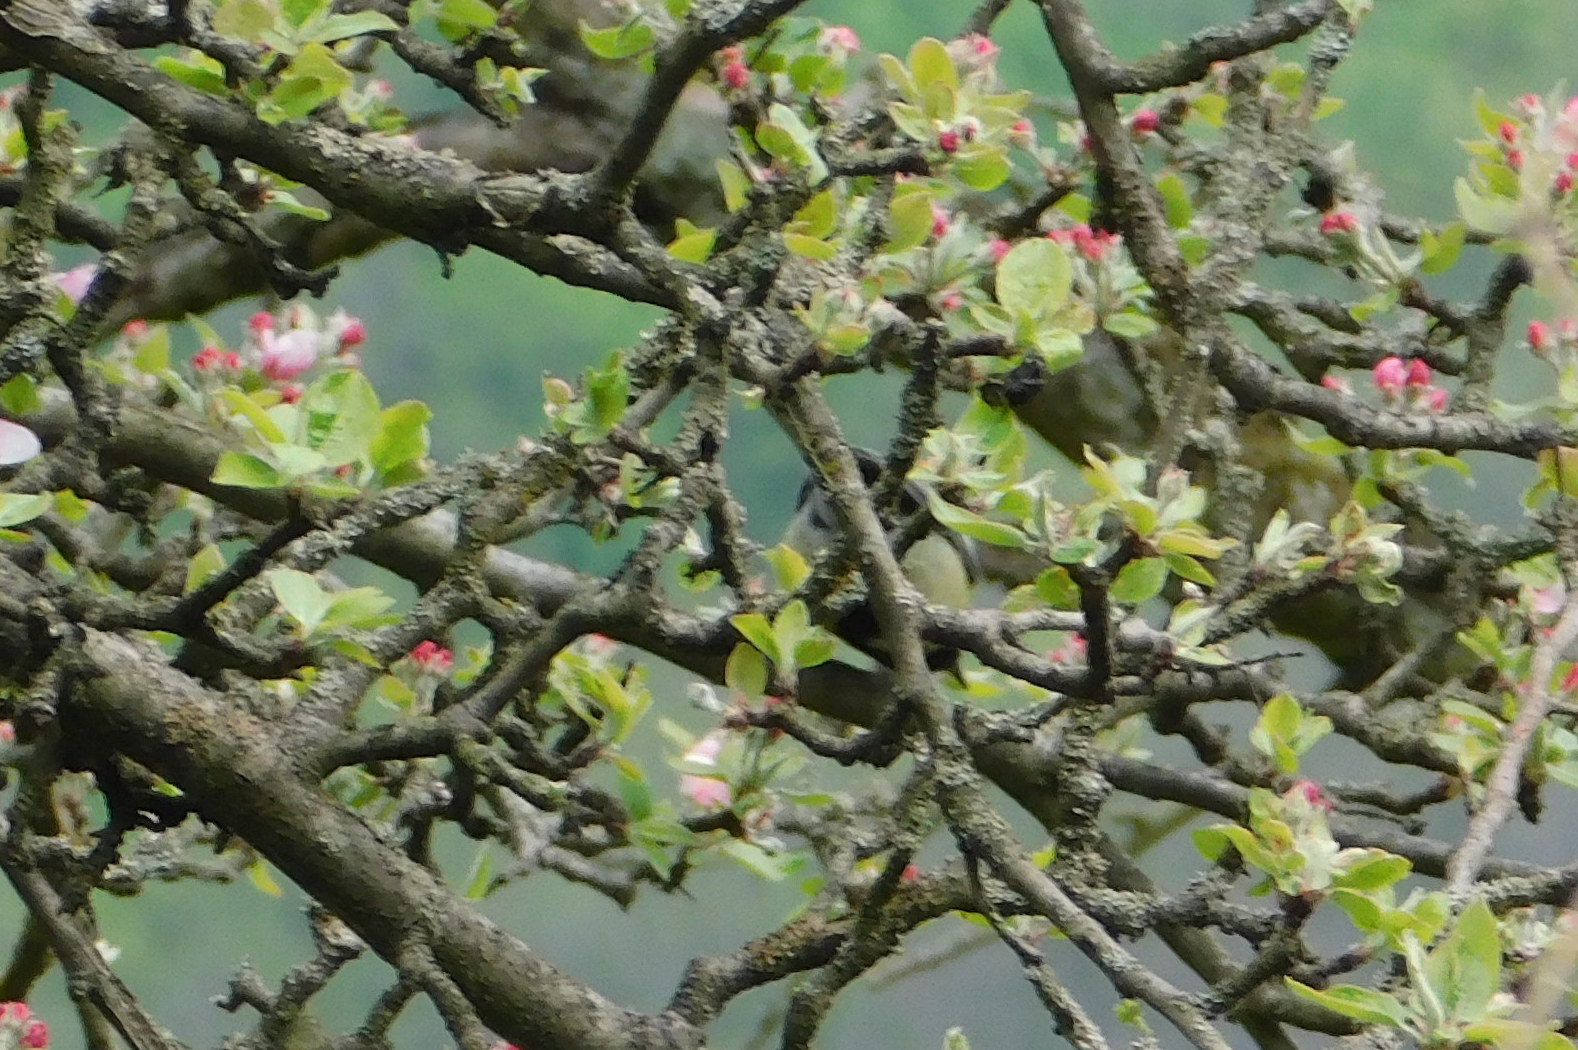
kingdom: Animalia
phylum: Chordata
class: Aves
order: Passeriformes
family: Paridae
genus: Parus
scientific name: Parus major
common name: Great tit
